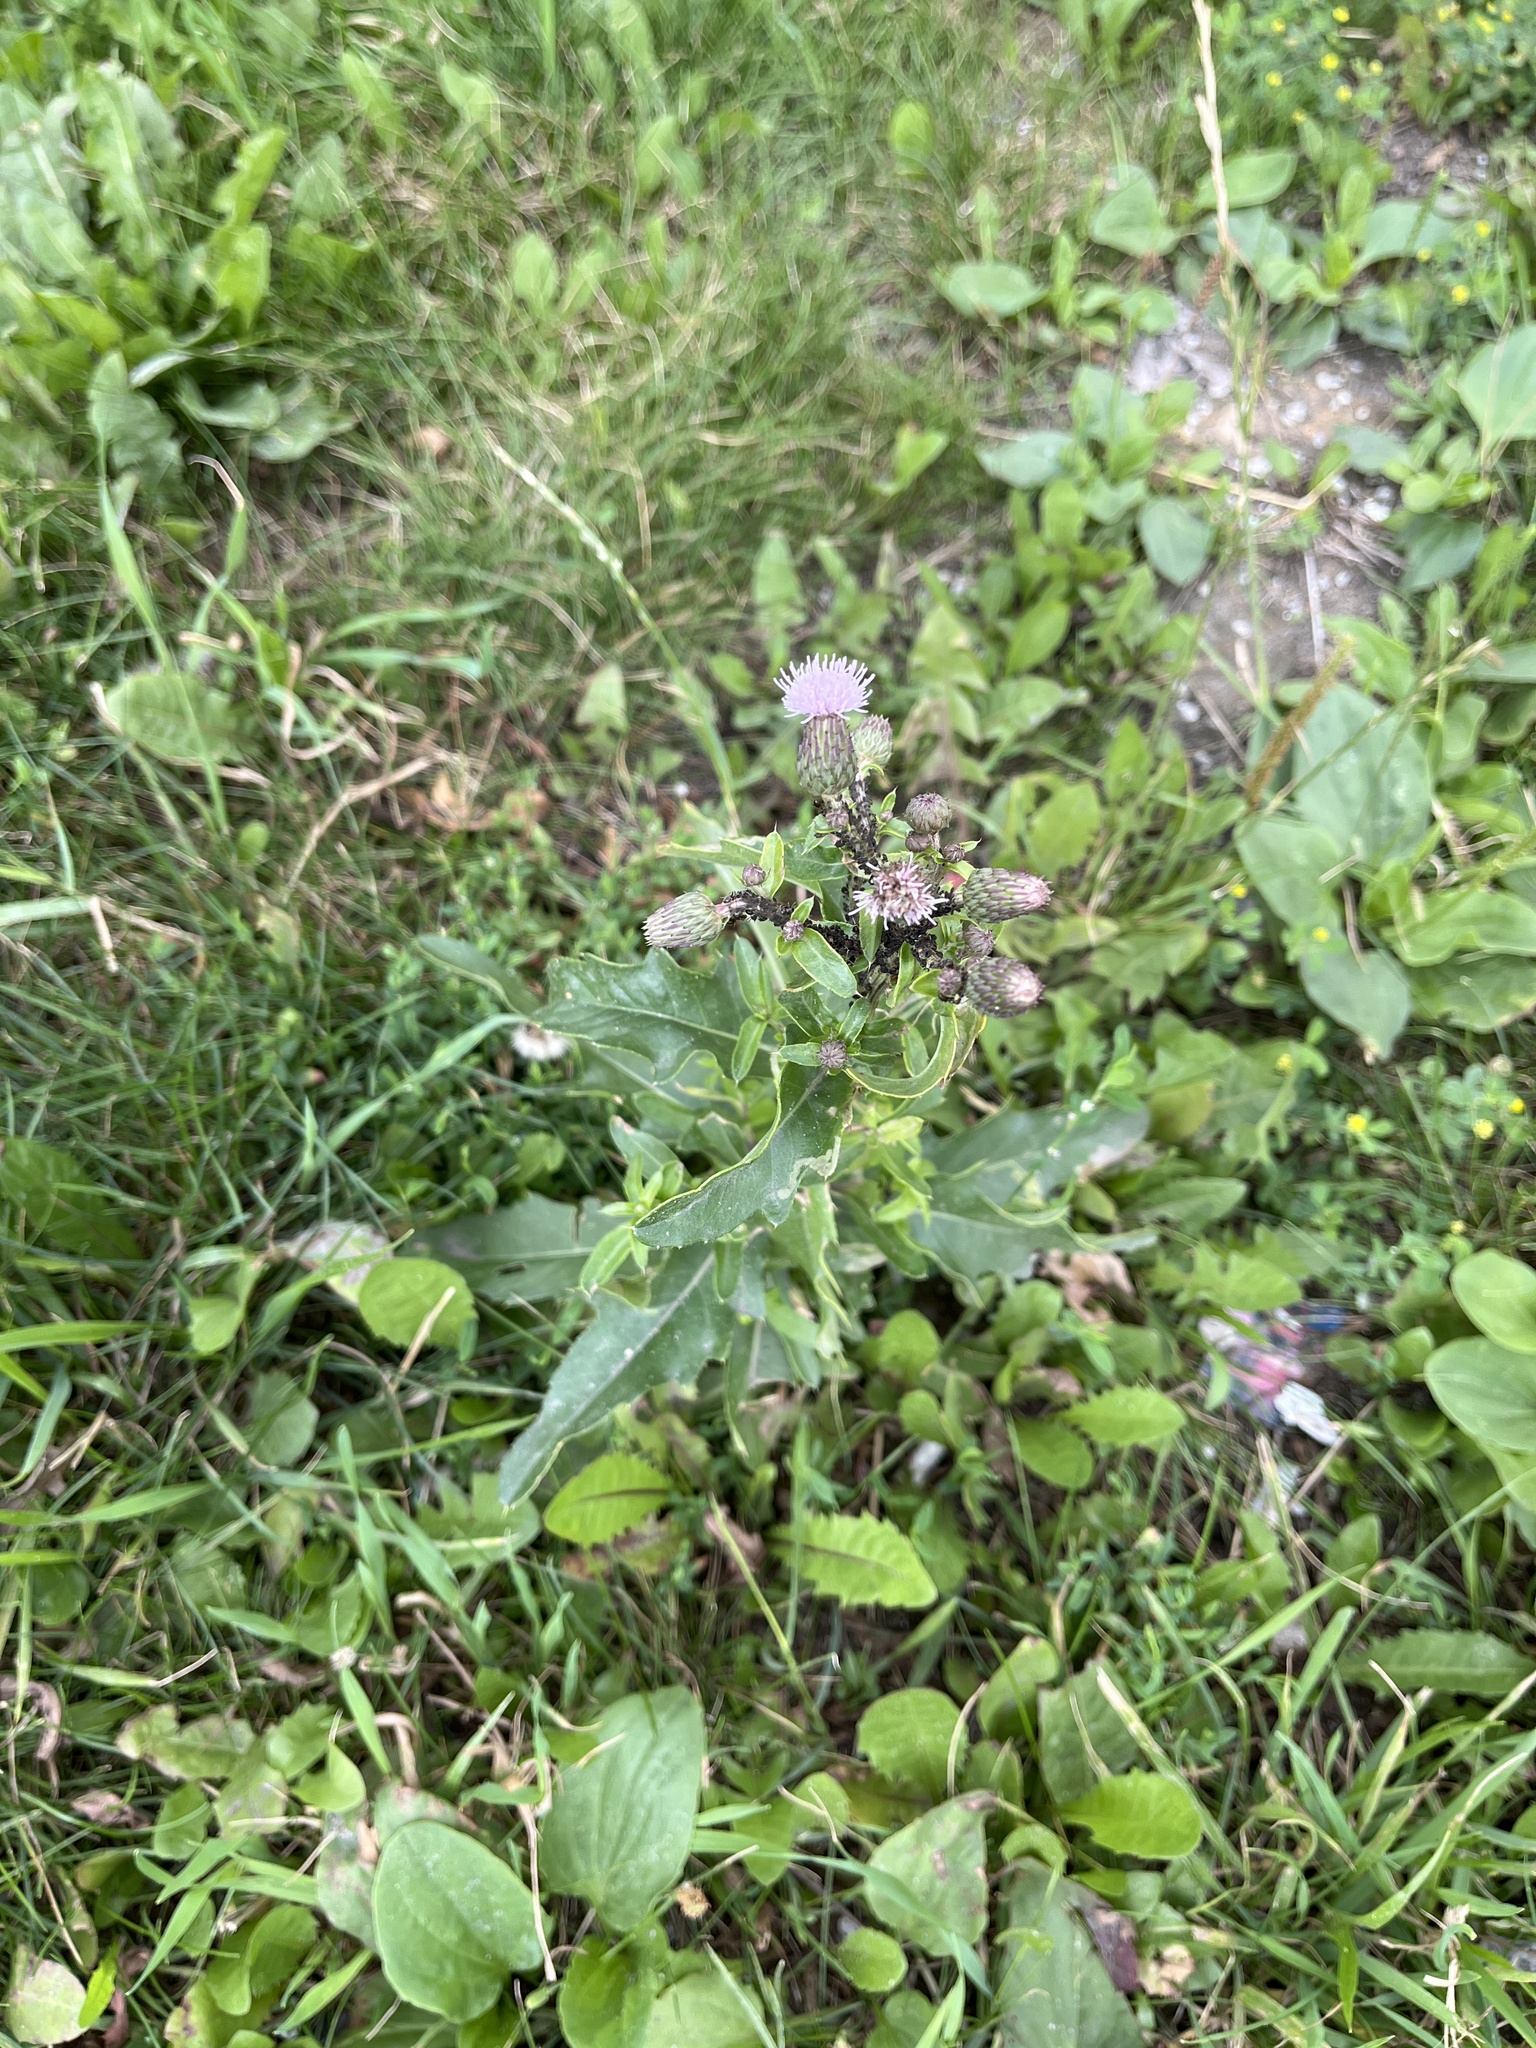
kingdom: Plantae
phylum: Tracheophyta
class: Magnoliopsida
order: Asterales
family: Asteraceae
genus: Cirsium
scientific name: Cirsium arvense
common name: Creeping thistle
